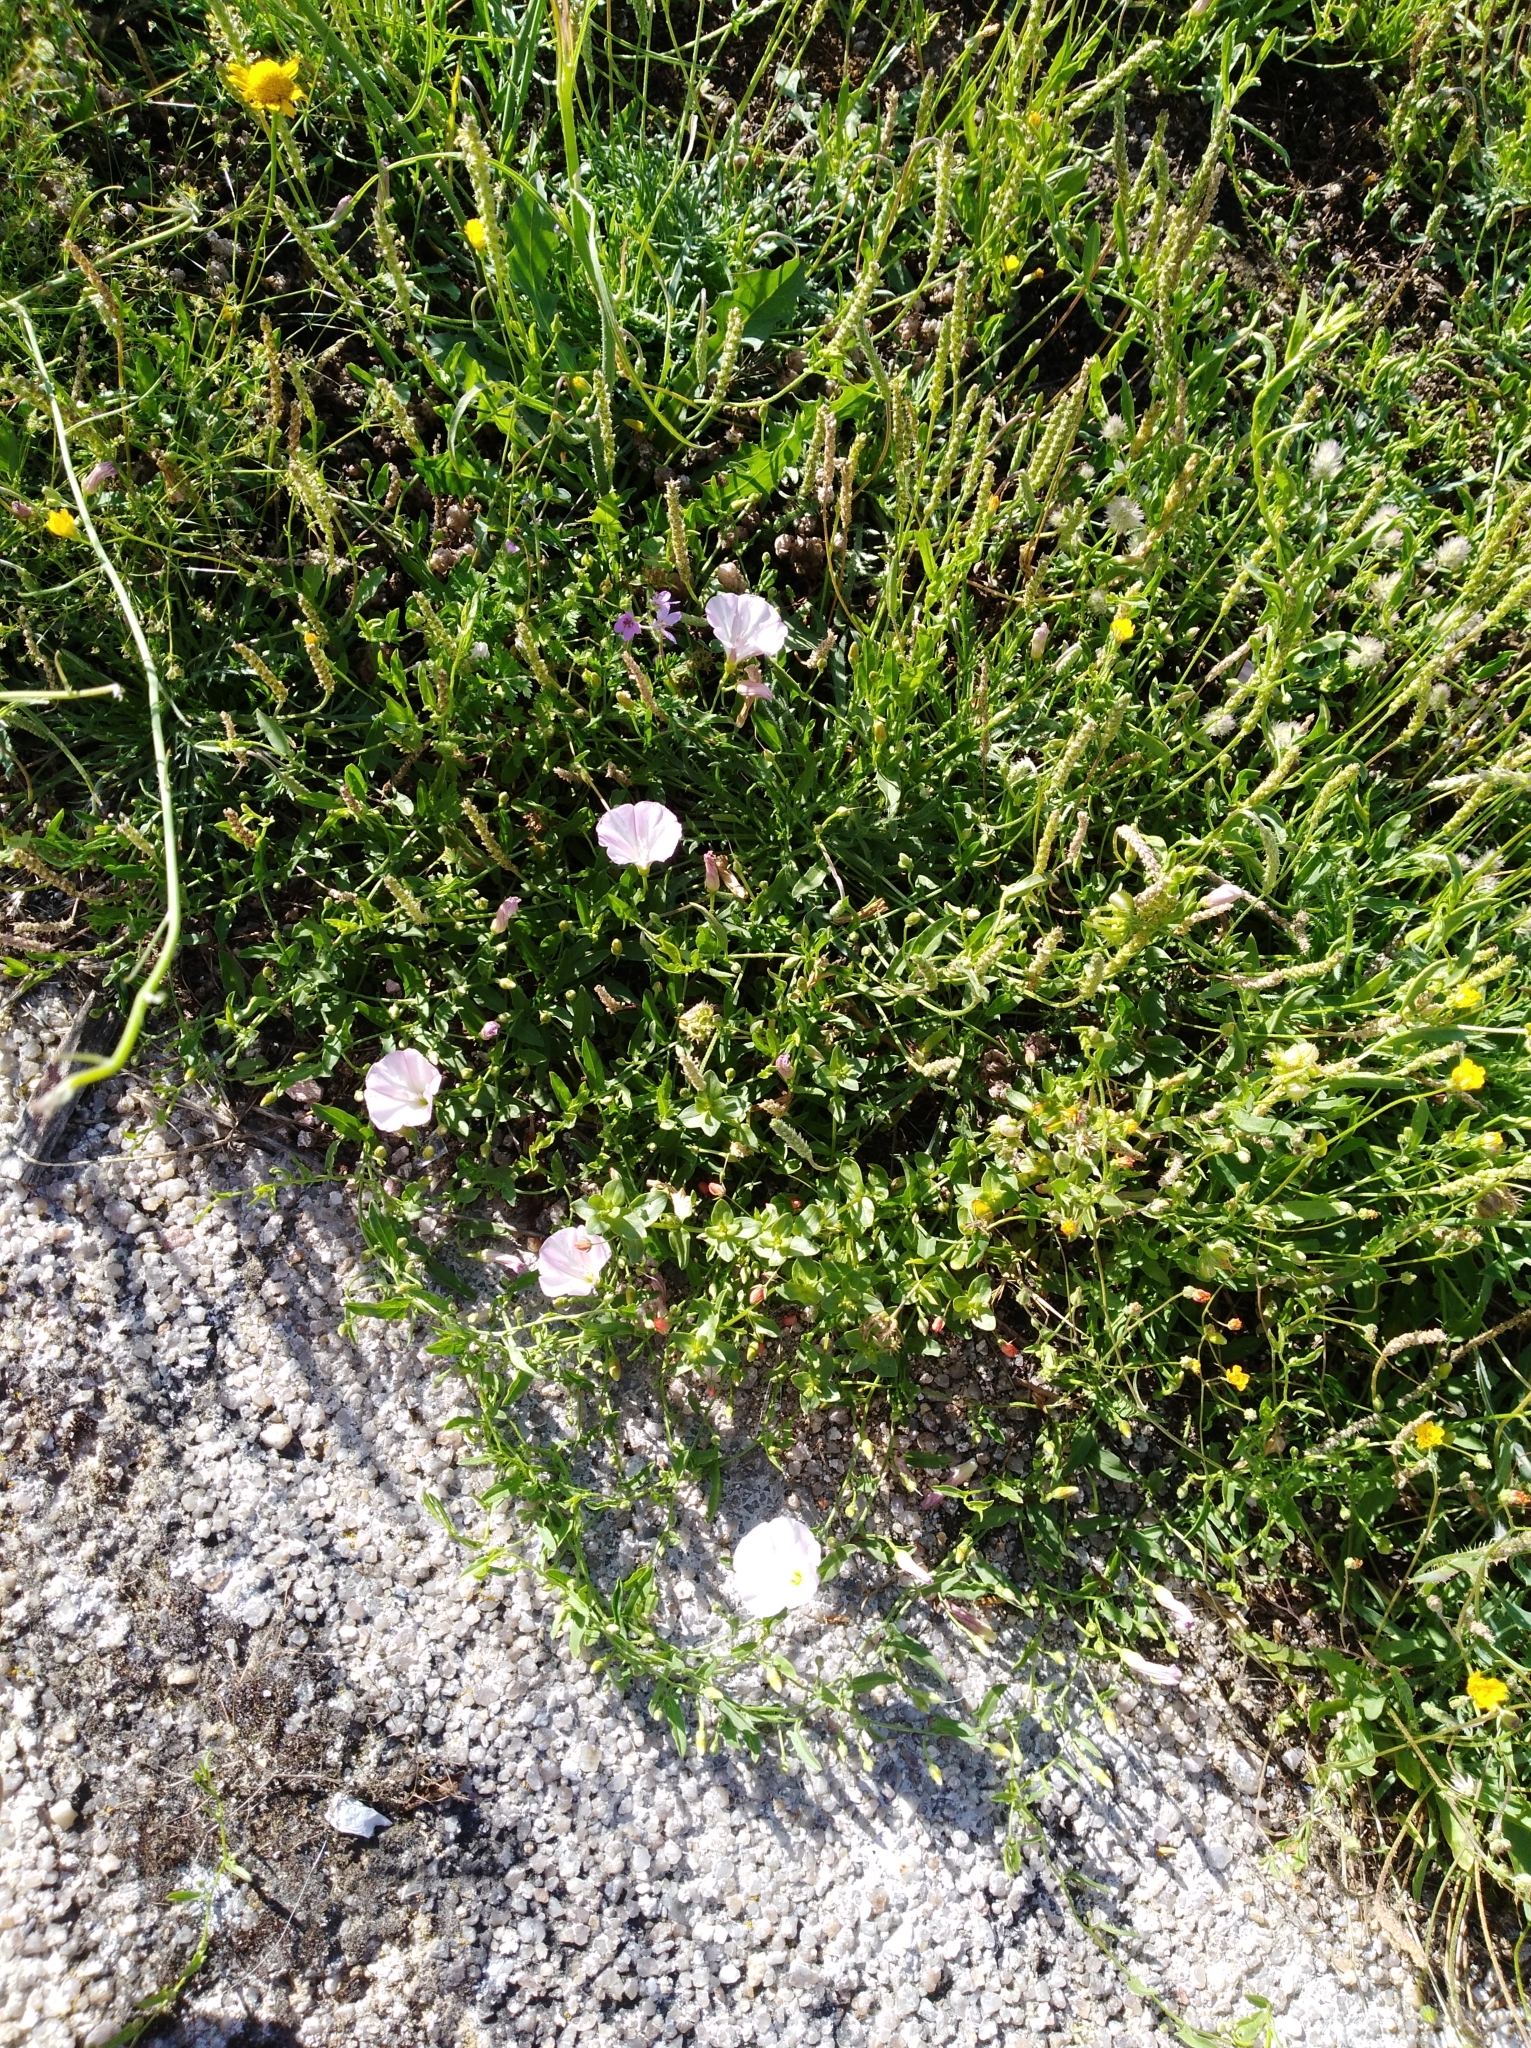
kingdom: Plantae
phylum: Tracheophyta
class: Magnoliopsida
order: Solanales
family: Convolvulaceae
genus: Convolvulus
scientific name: Convolvulus arvensis
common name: Field bindweed
